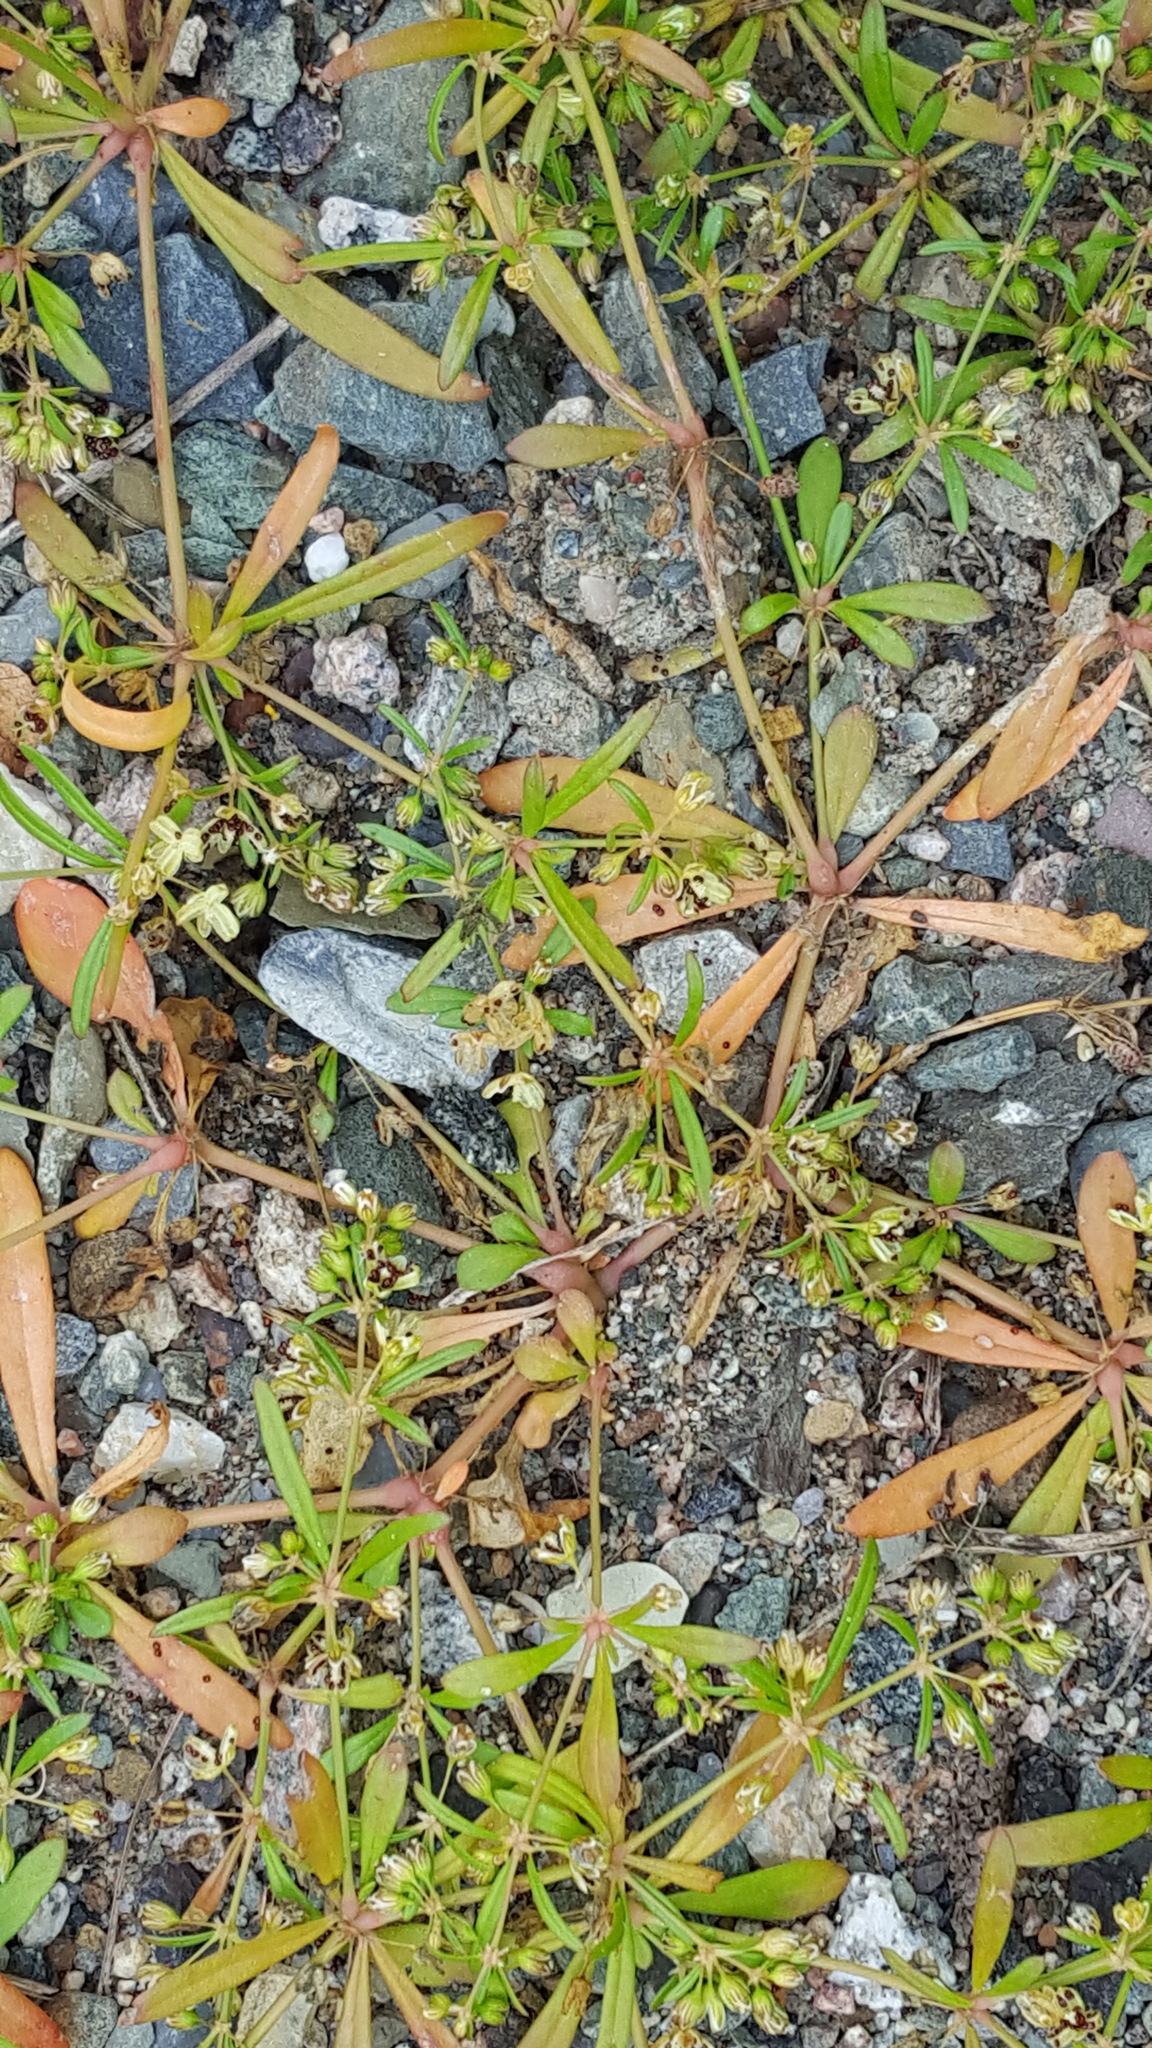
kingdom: Plantae
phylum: Tracheophyta
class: Magnoliopsida
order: Caryophyllales
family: Molluginaceae
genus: Mollugo
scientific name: Mollugo verticillata
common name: Green carpetweed
